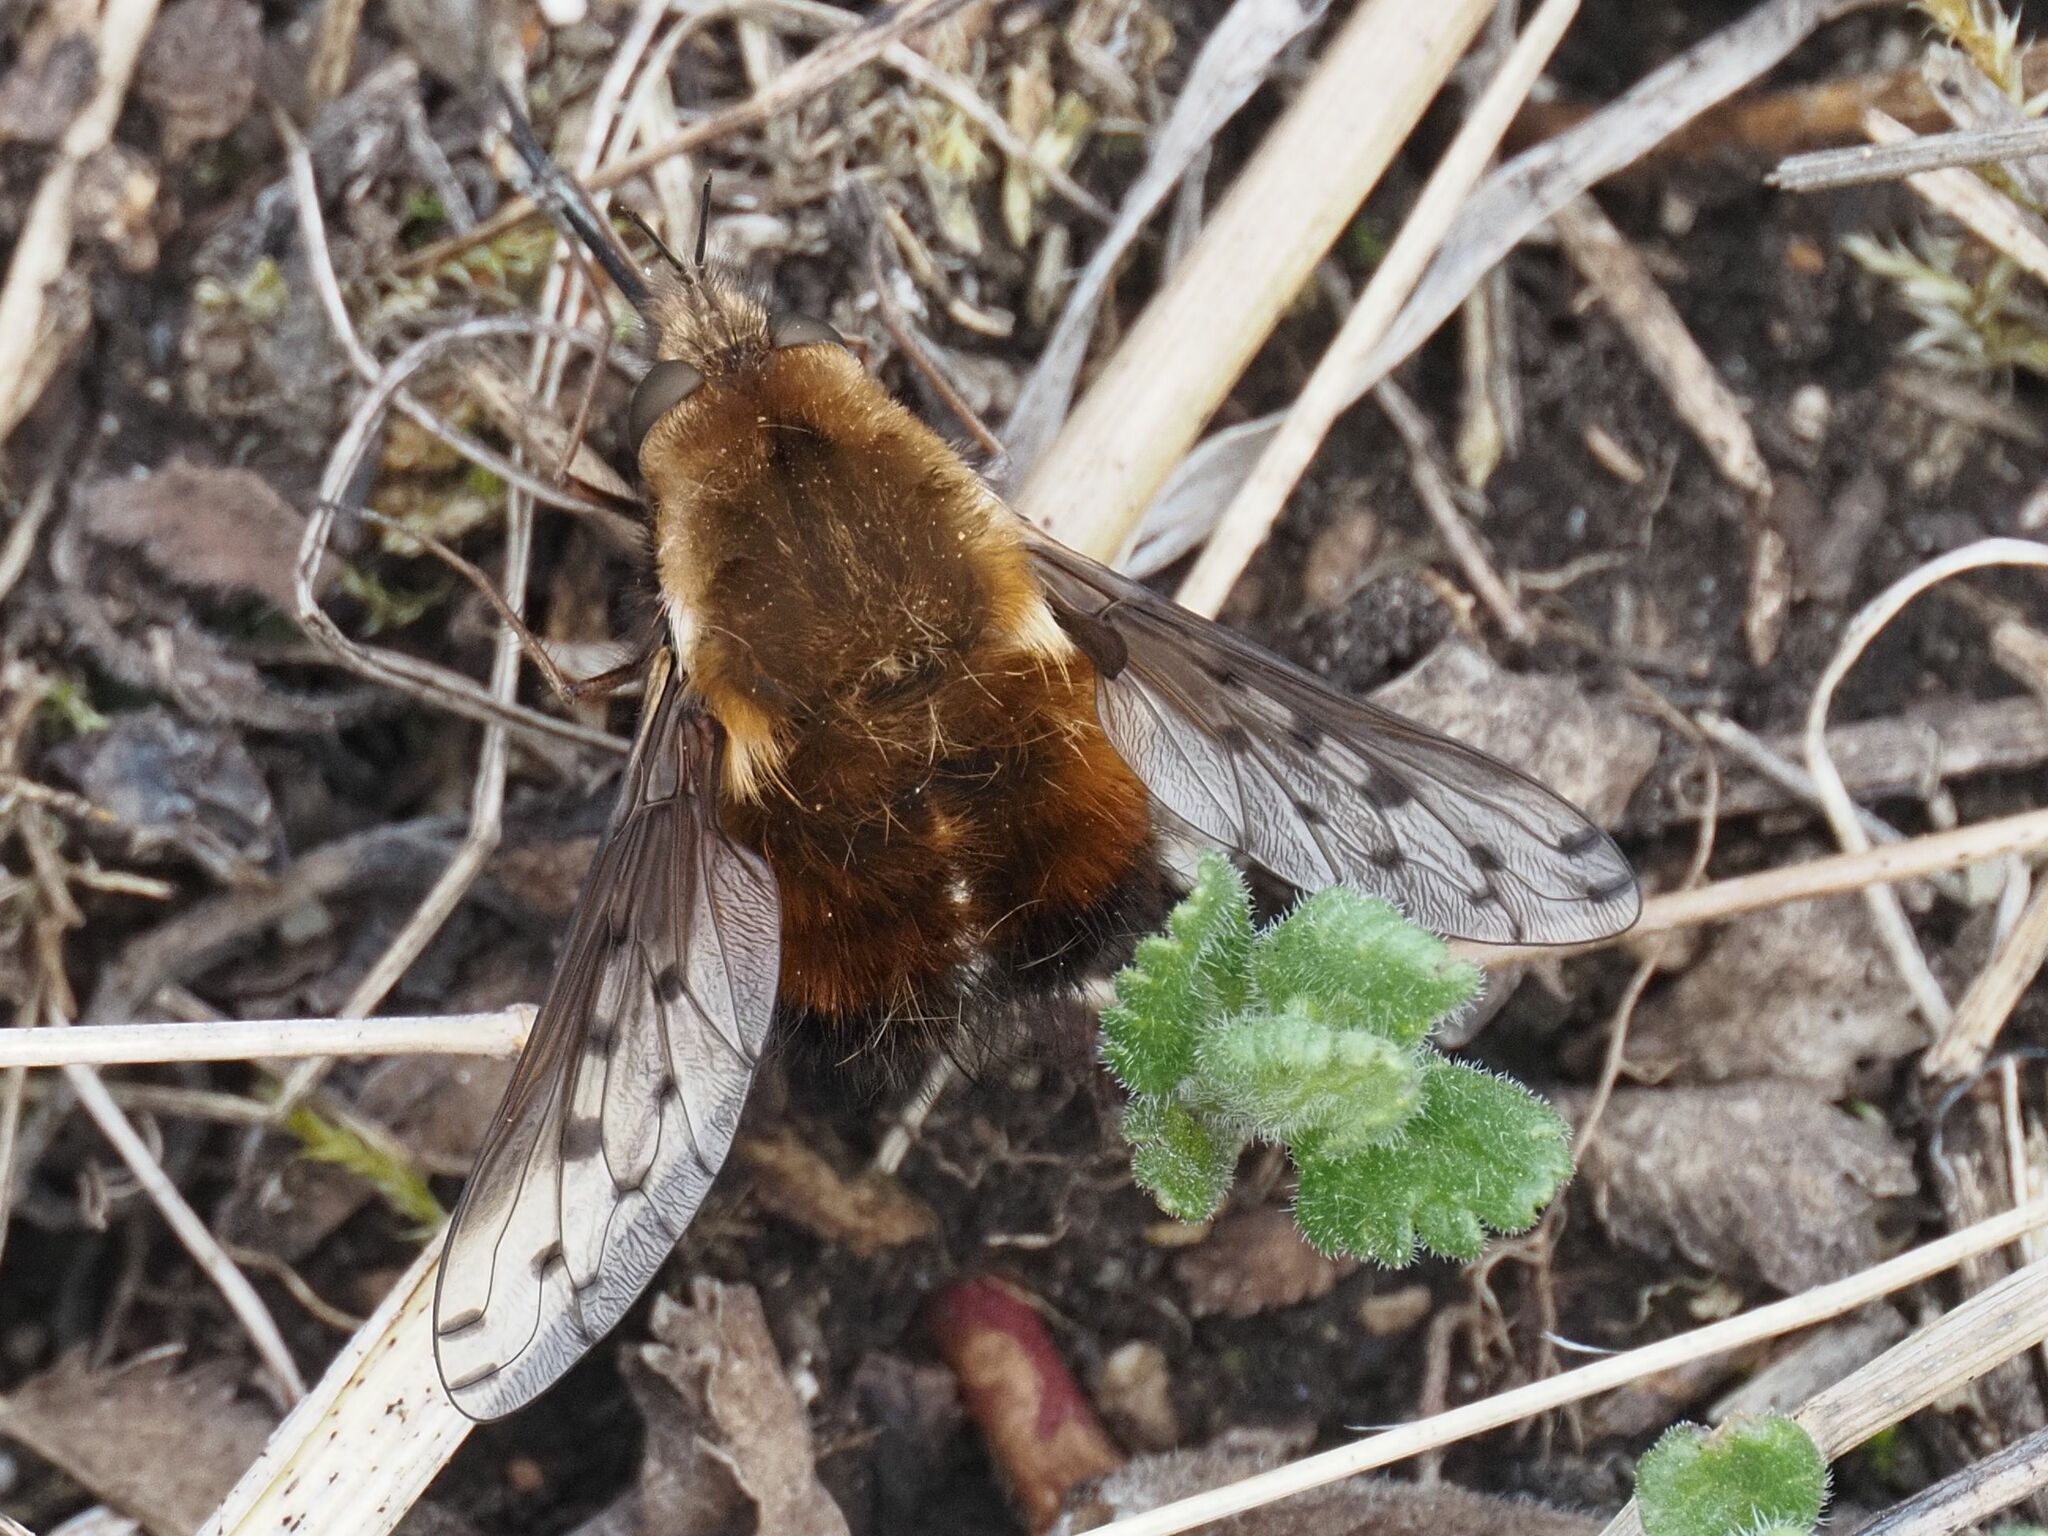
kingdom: Animalia
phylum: Arthropoda
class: Insecta
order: Diptera
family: Bombyliidae
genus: Bombylius
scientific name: Bombylius discolor
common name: Dotted bee-fly
